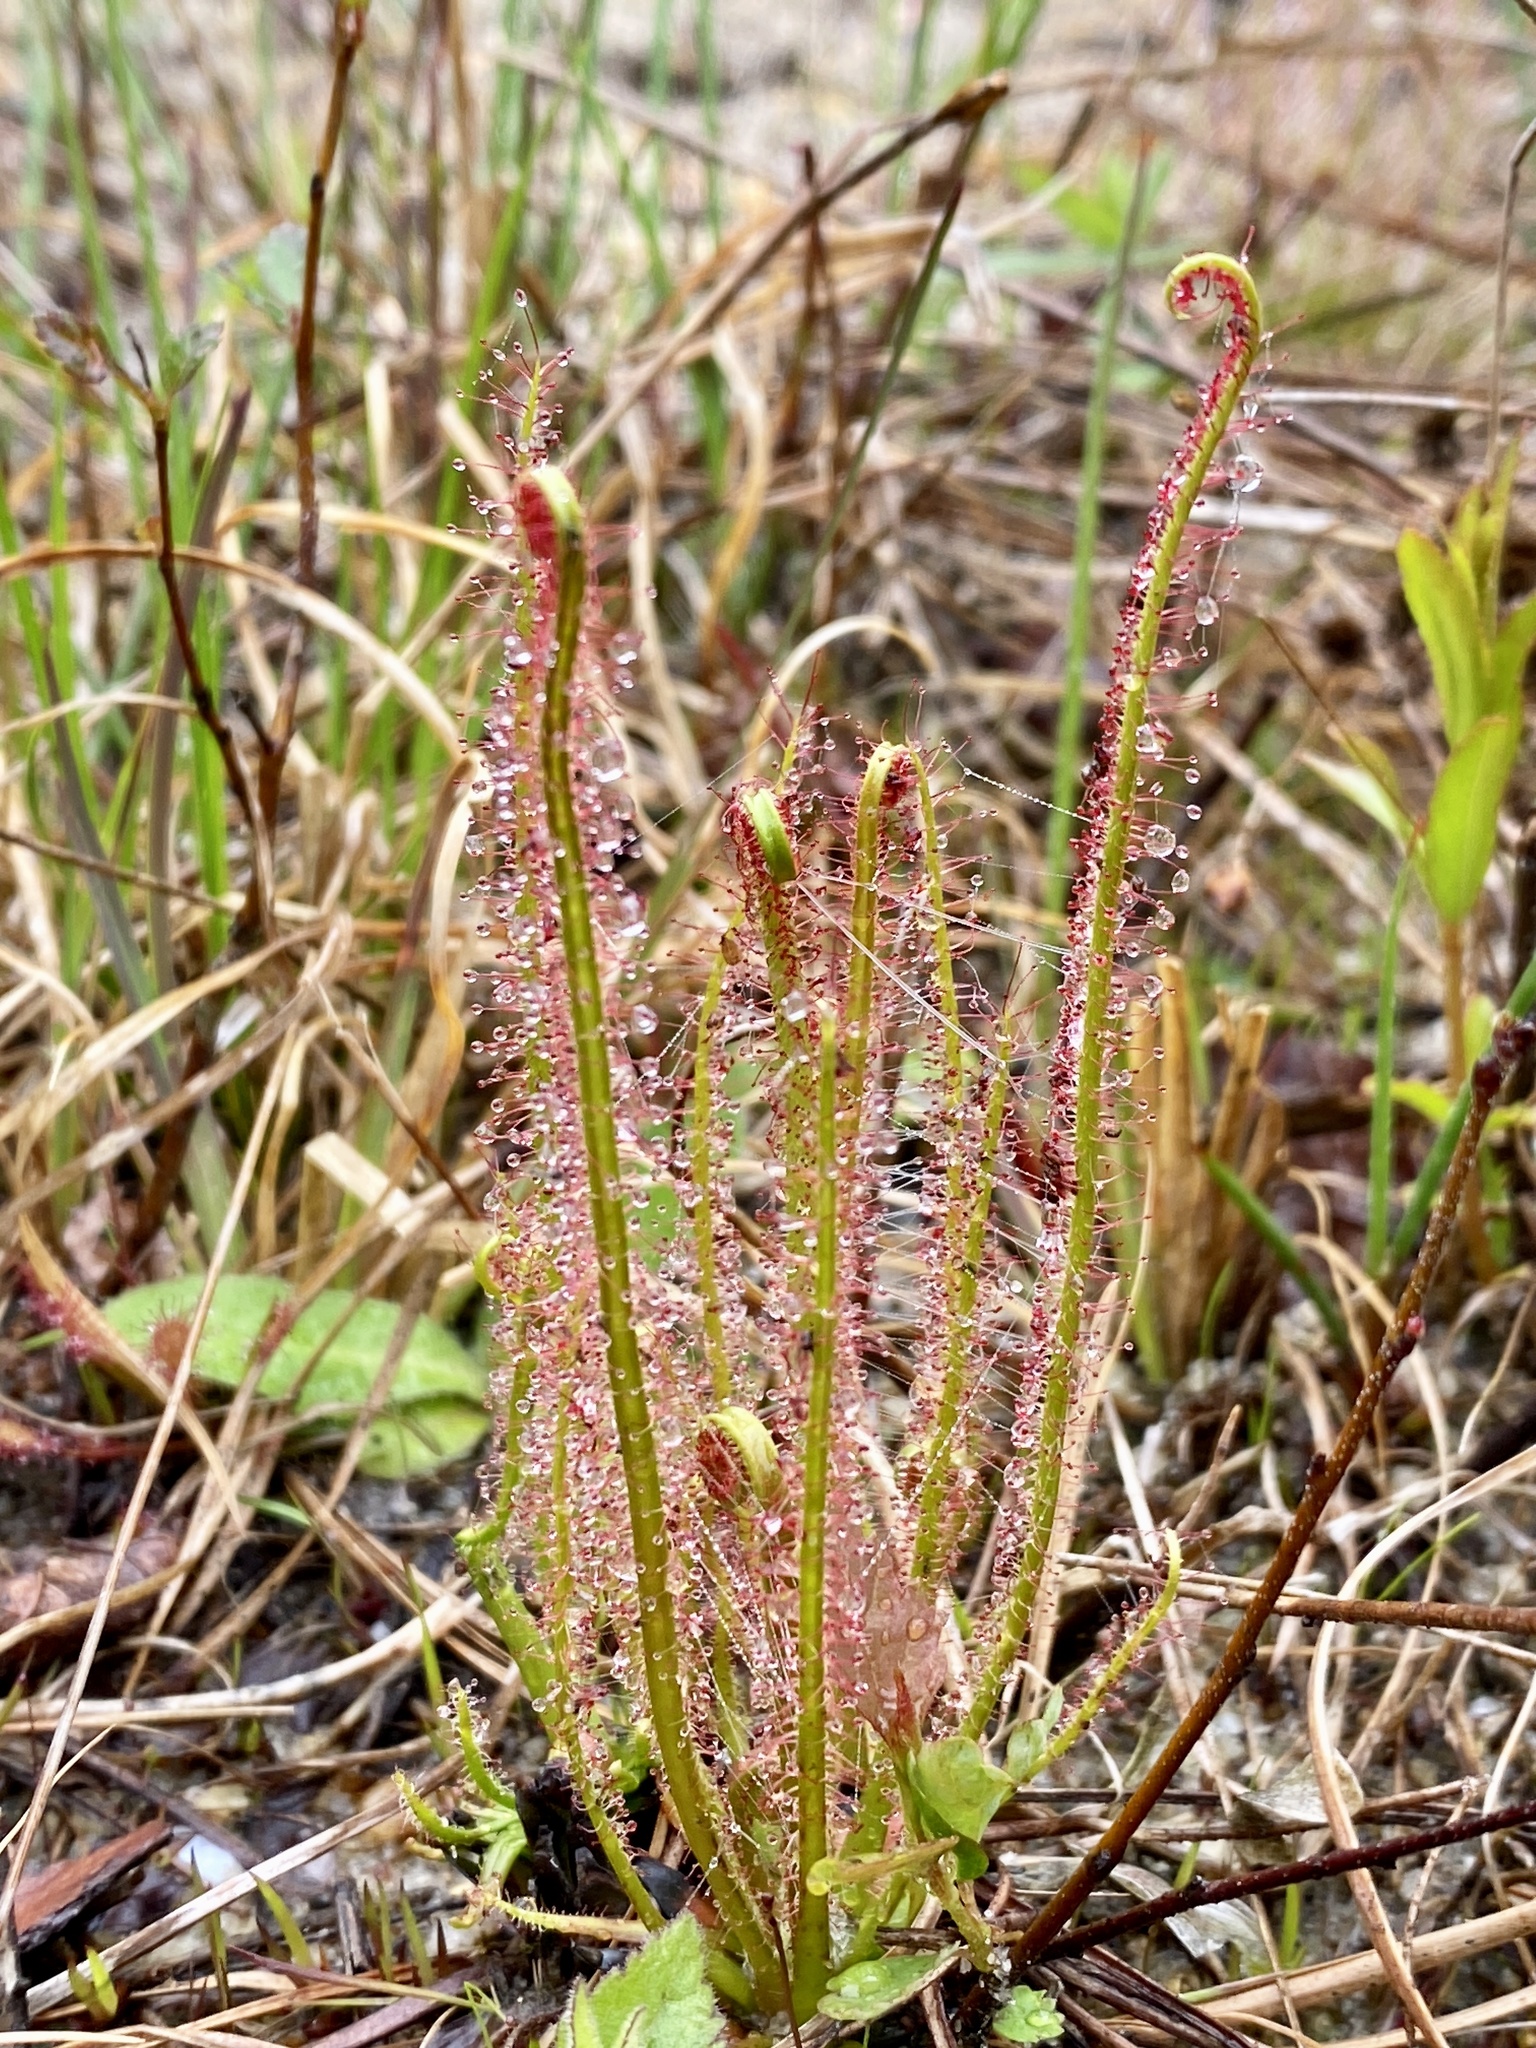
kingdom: Plantae
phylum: Tracheophyta
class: Magnoliopsida
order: Caryophyllales
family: Droseraceae
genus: Drosera
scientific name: Drosera filiformis
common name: Dew-thread
